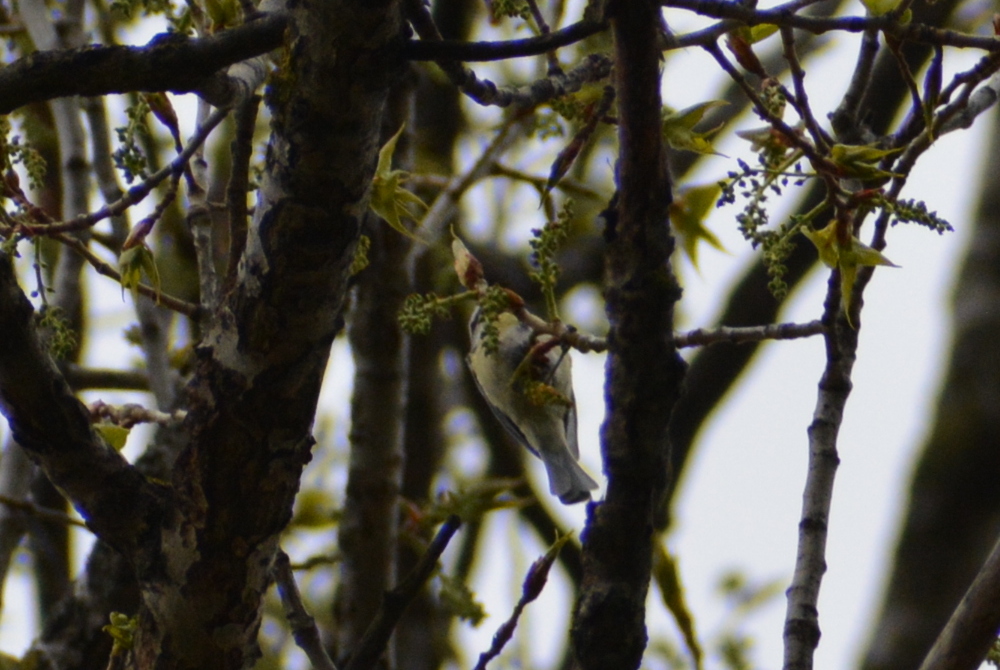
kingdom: Animalia
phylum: Chordata
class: Aves
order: Passeriformes
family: Paridae
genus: Cyanistes
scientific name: Cyanistes caeruleus
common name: Eurasian blue tit
